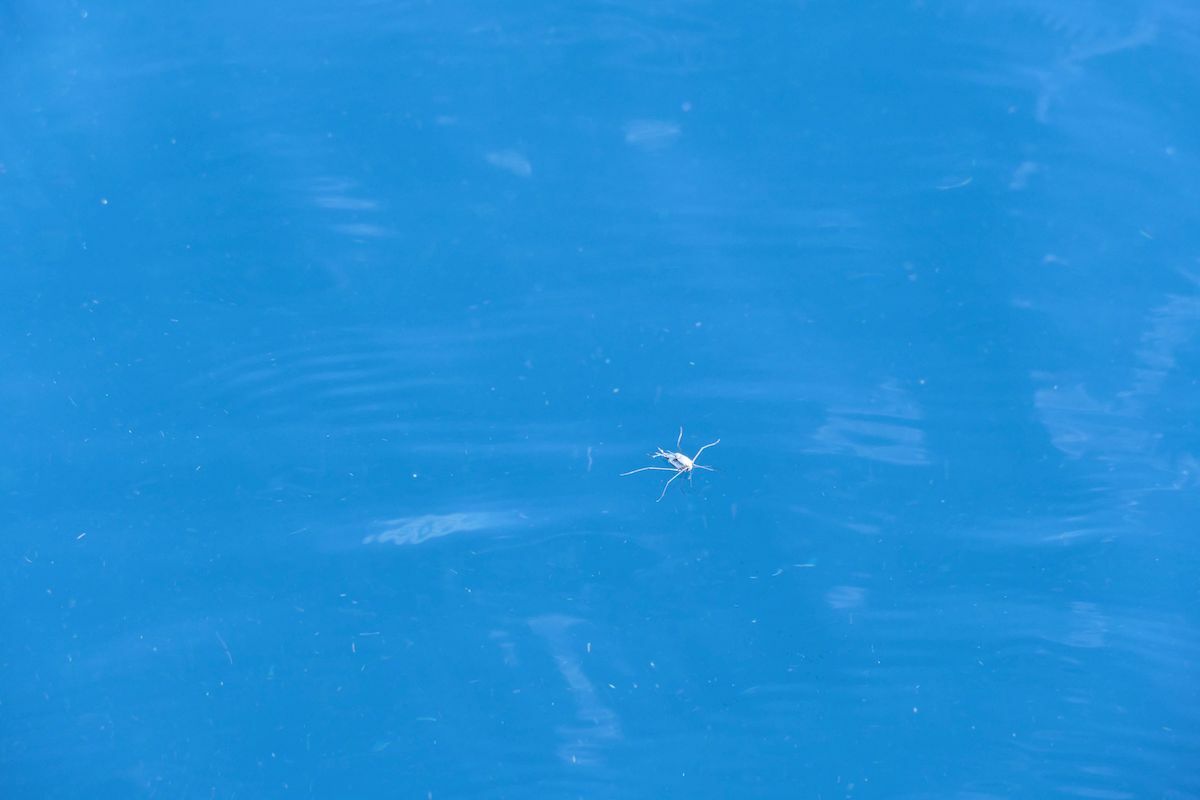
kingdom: Animalia
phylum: Arthropoda
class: Insecta
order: Hemiptera
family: Gerridae
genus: Halobates
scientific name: Halobates
